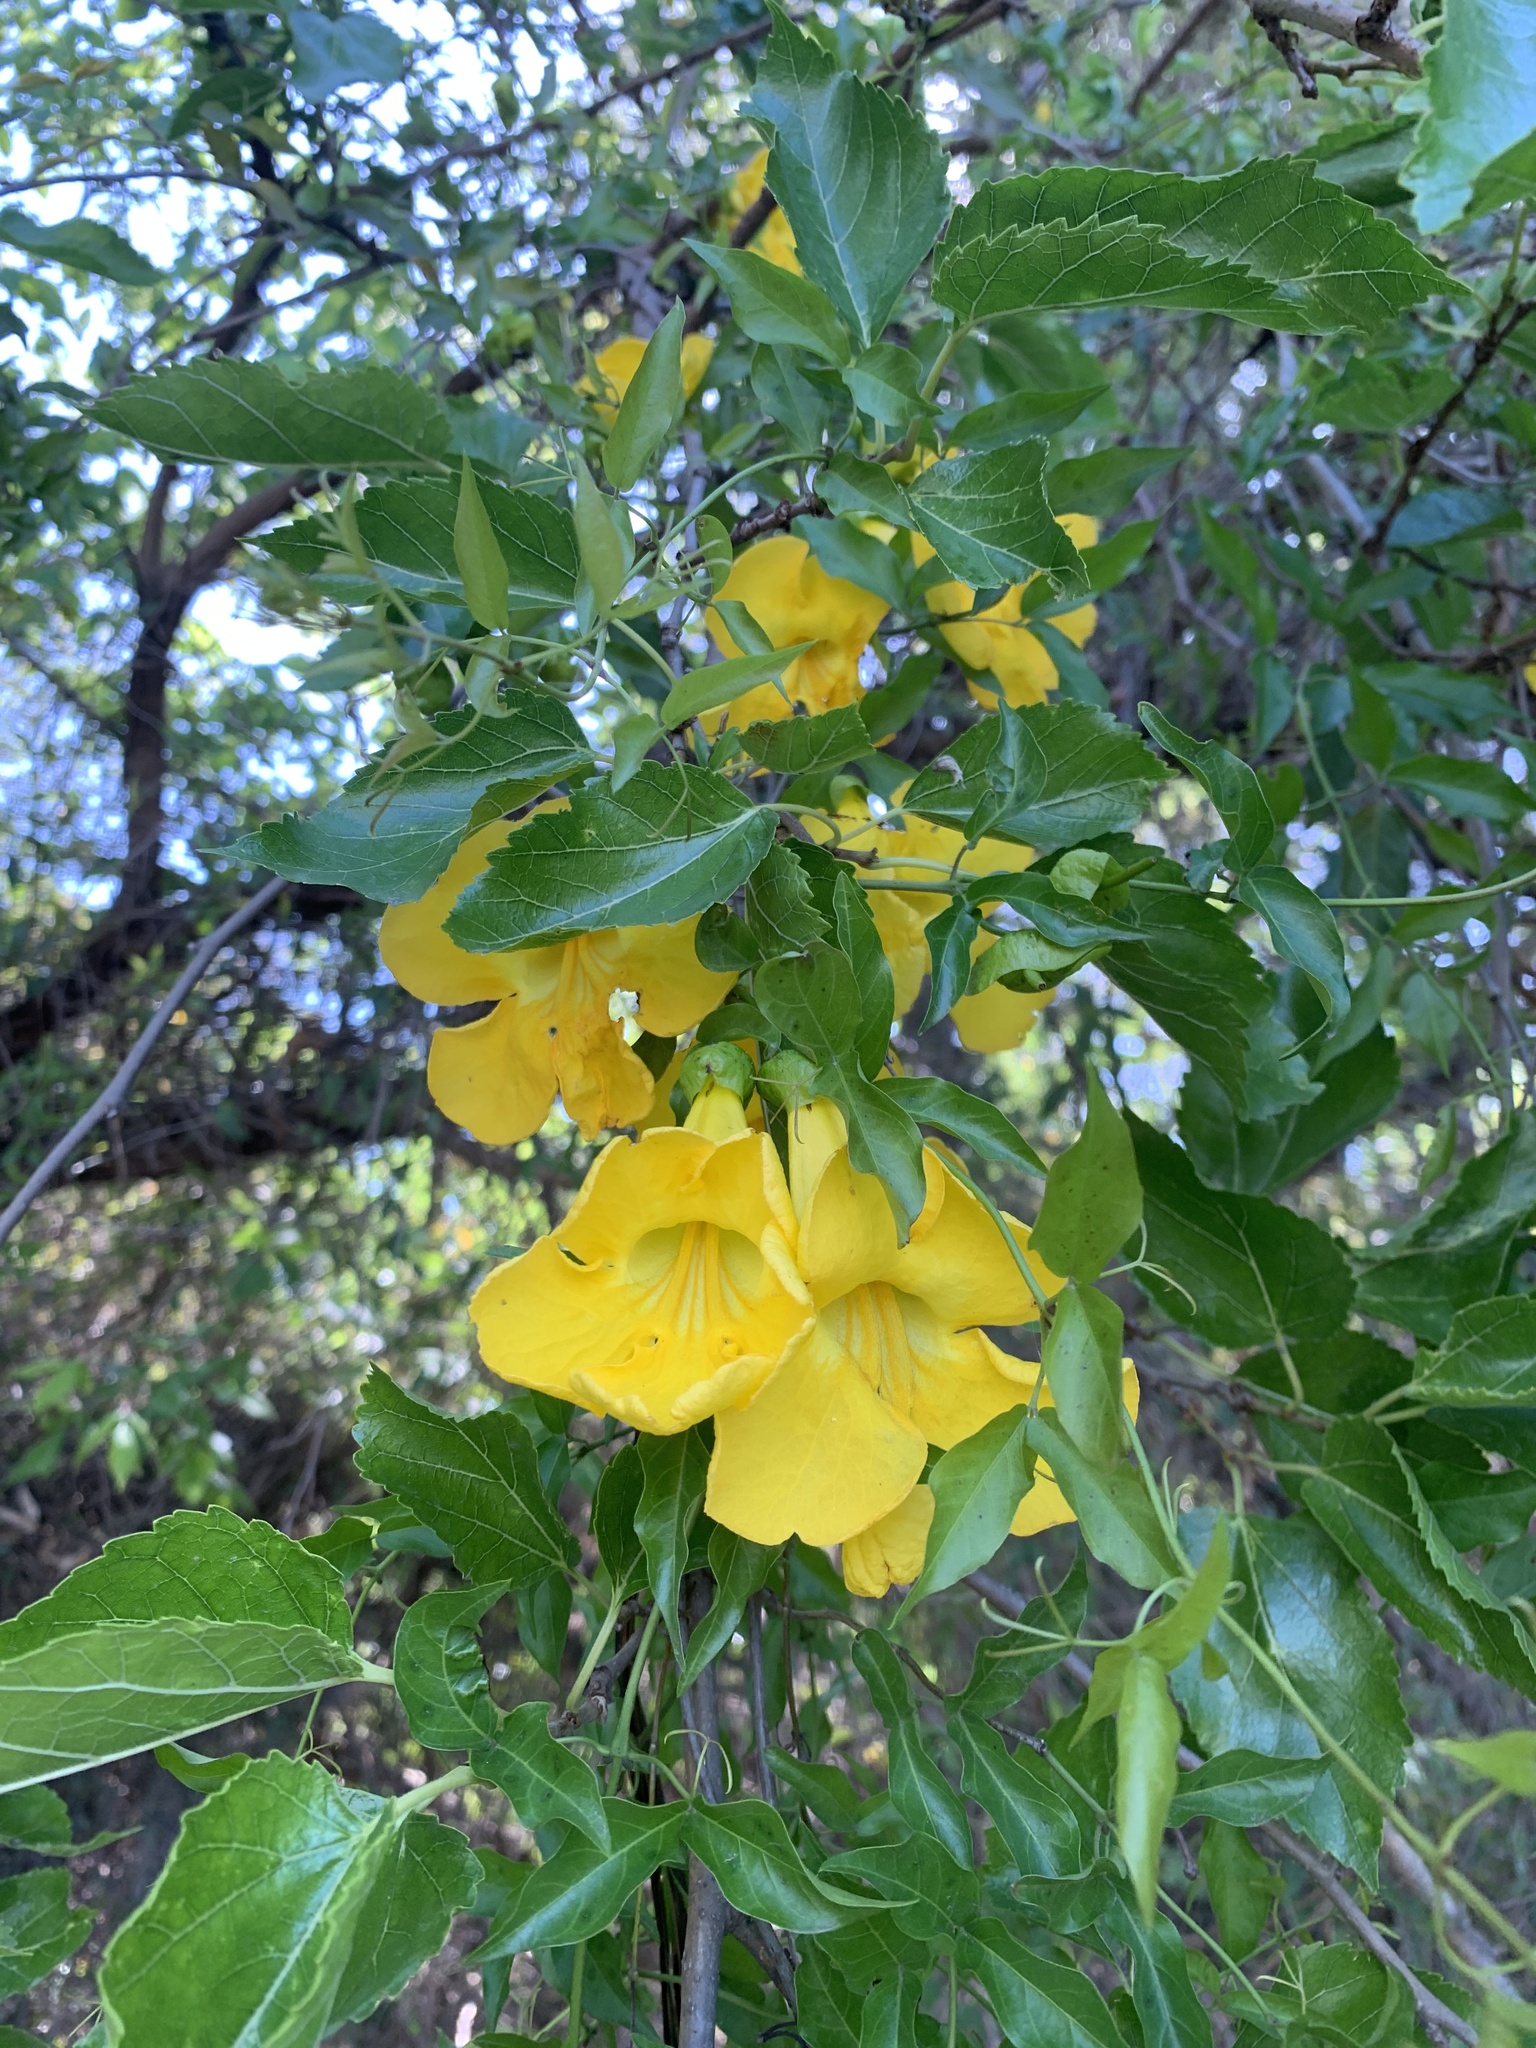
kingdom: Plantae
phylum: Tracheophyta
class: Magnoliopsida
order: Lamiales
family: Bignoniaceae
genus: Dolichandra
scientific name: Dolichandra unguis-cati
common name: Catclaw vine
